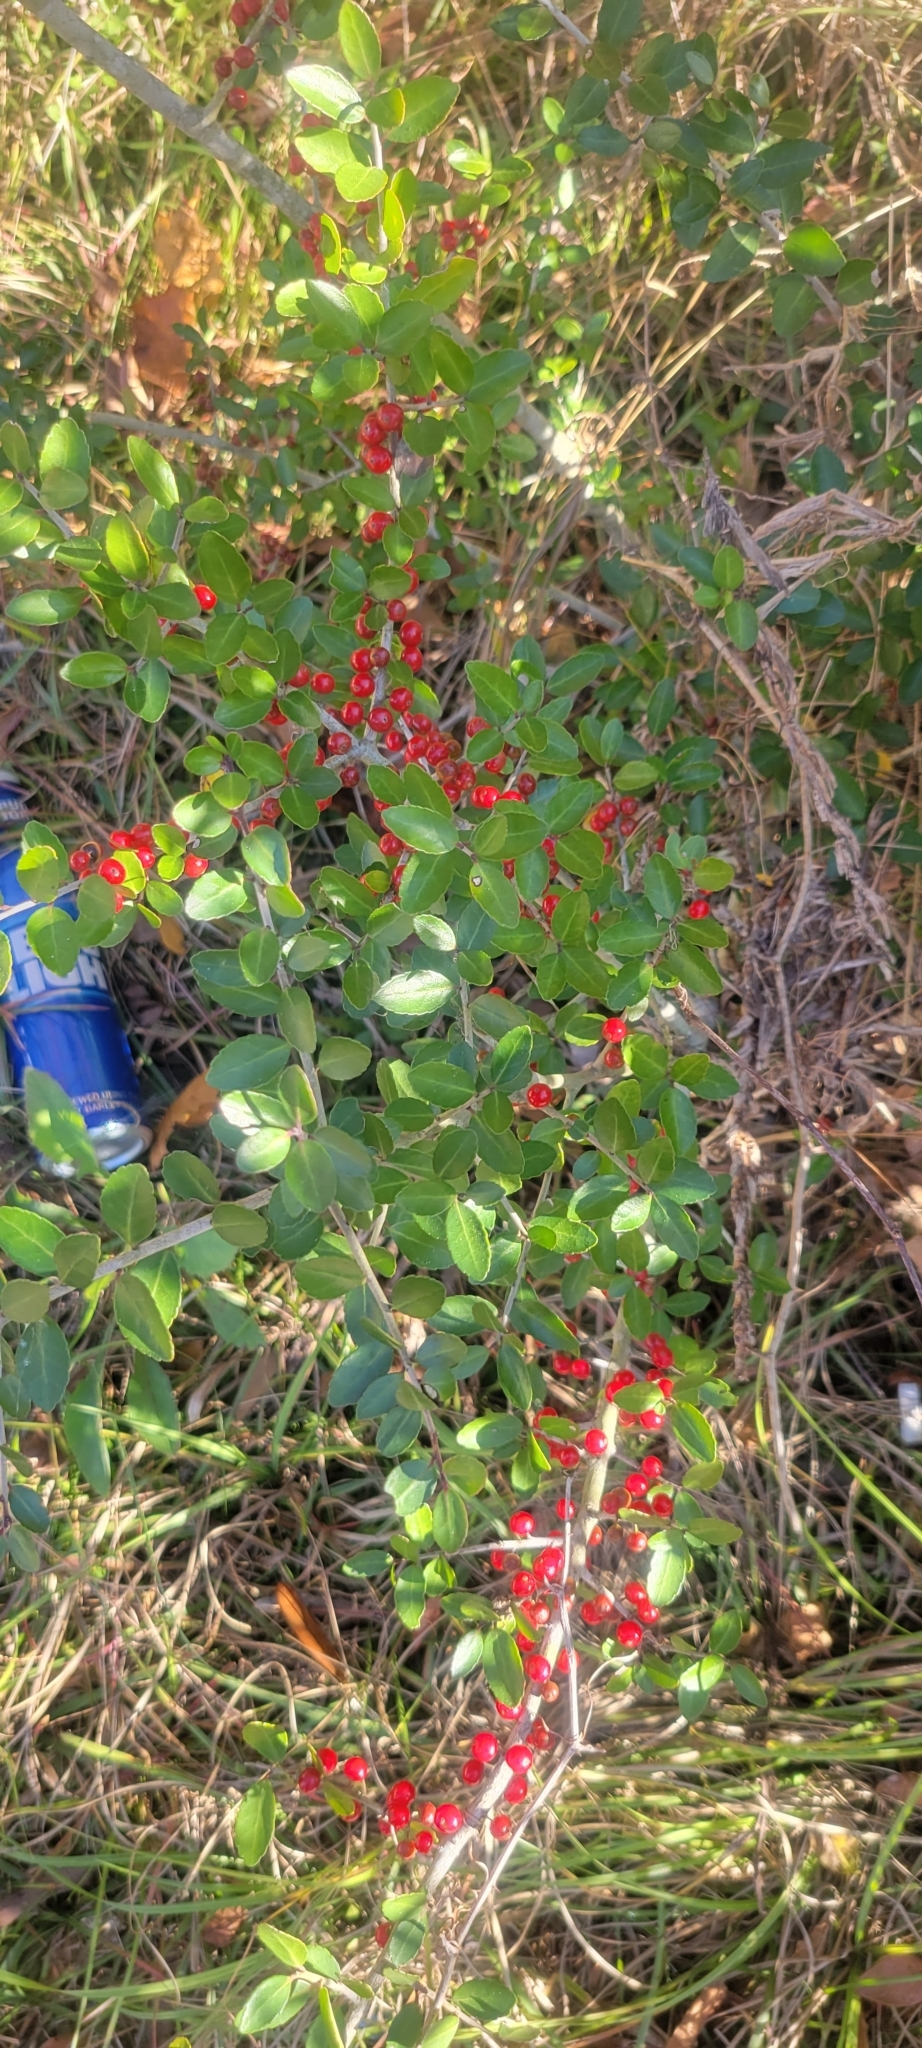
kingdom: Plantae
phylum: Tracheophyta
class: Magnoliopsida
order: Aquifoliales
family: Aquifoliaceae
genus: Ilex
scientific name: Ilex vomitoria
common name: Yaupon holly
